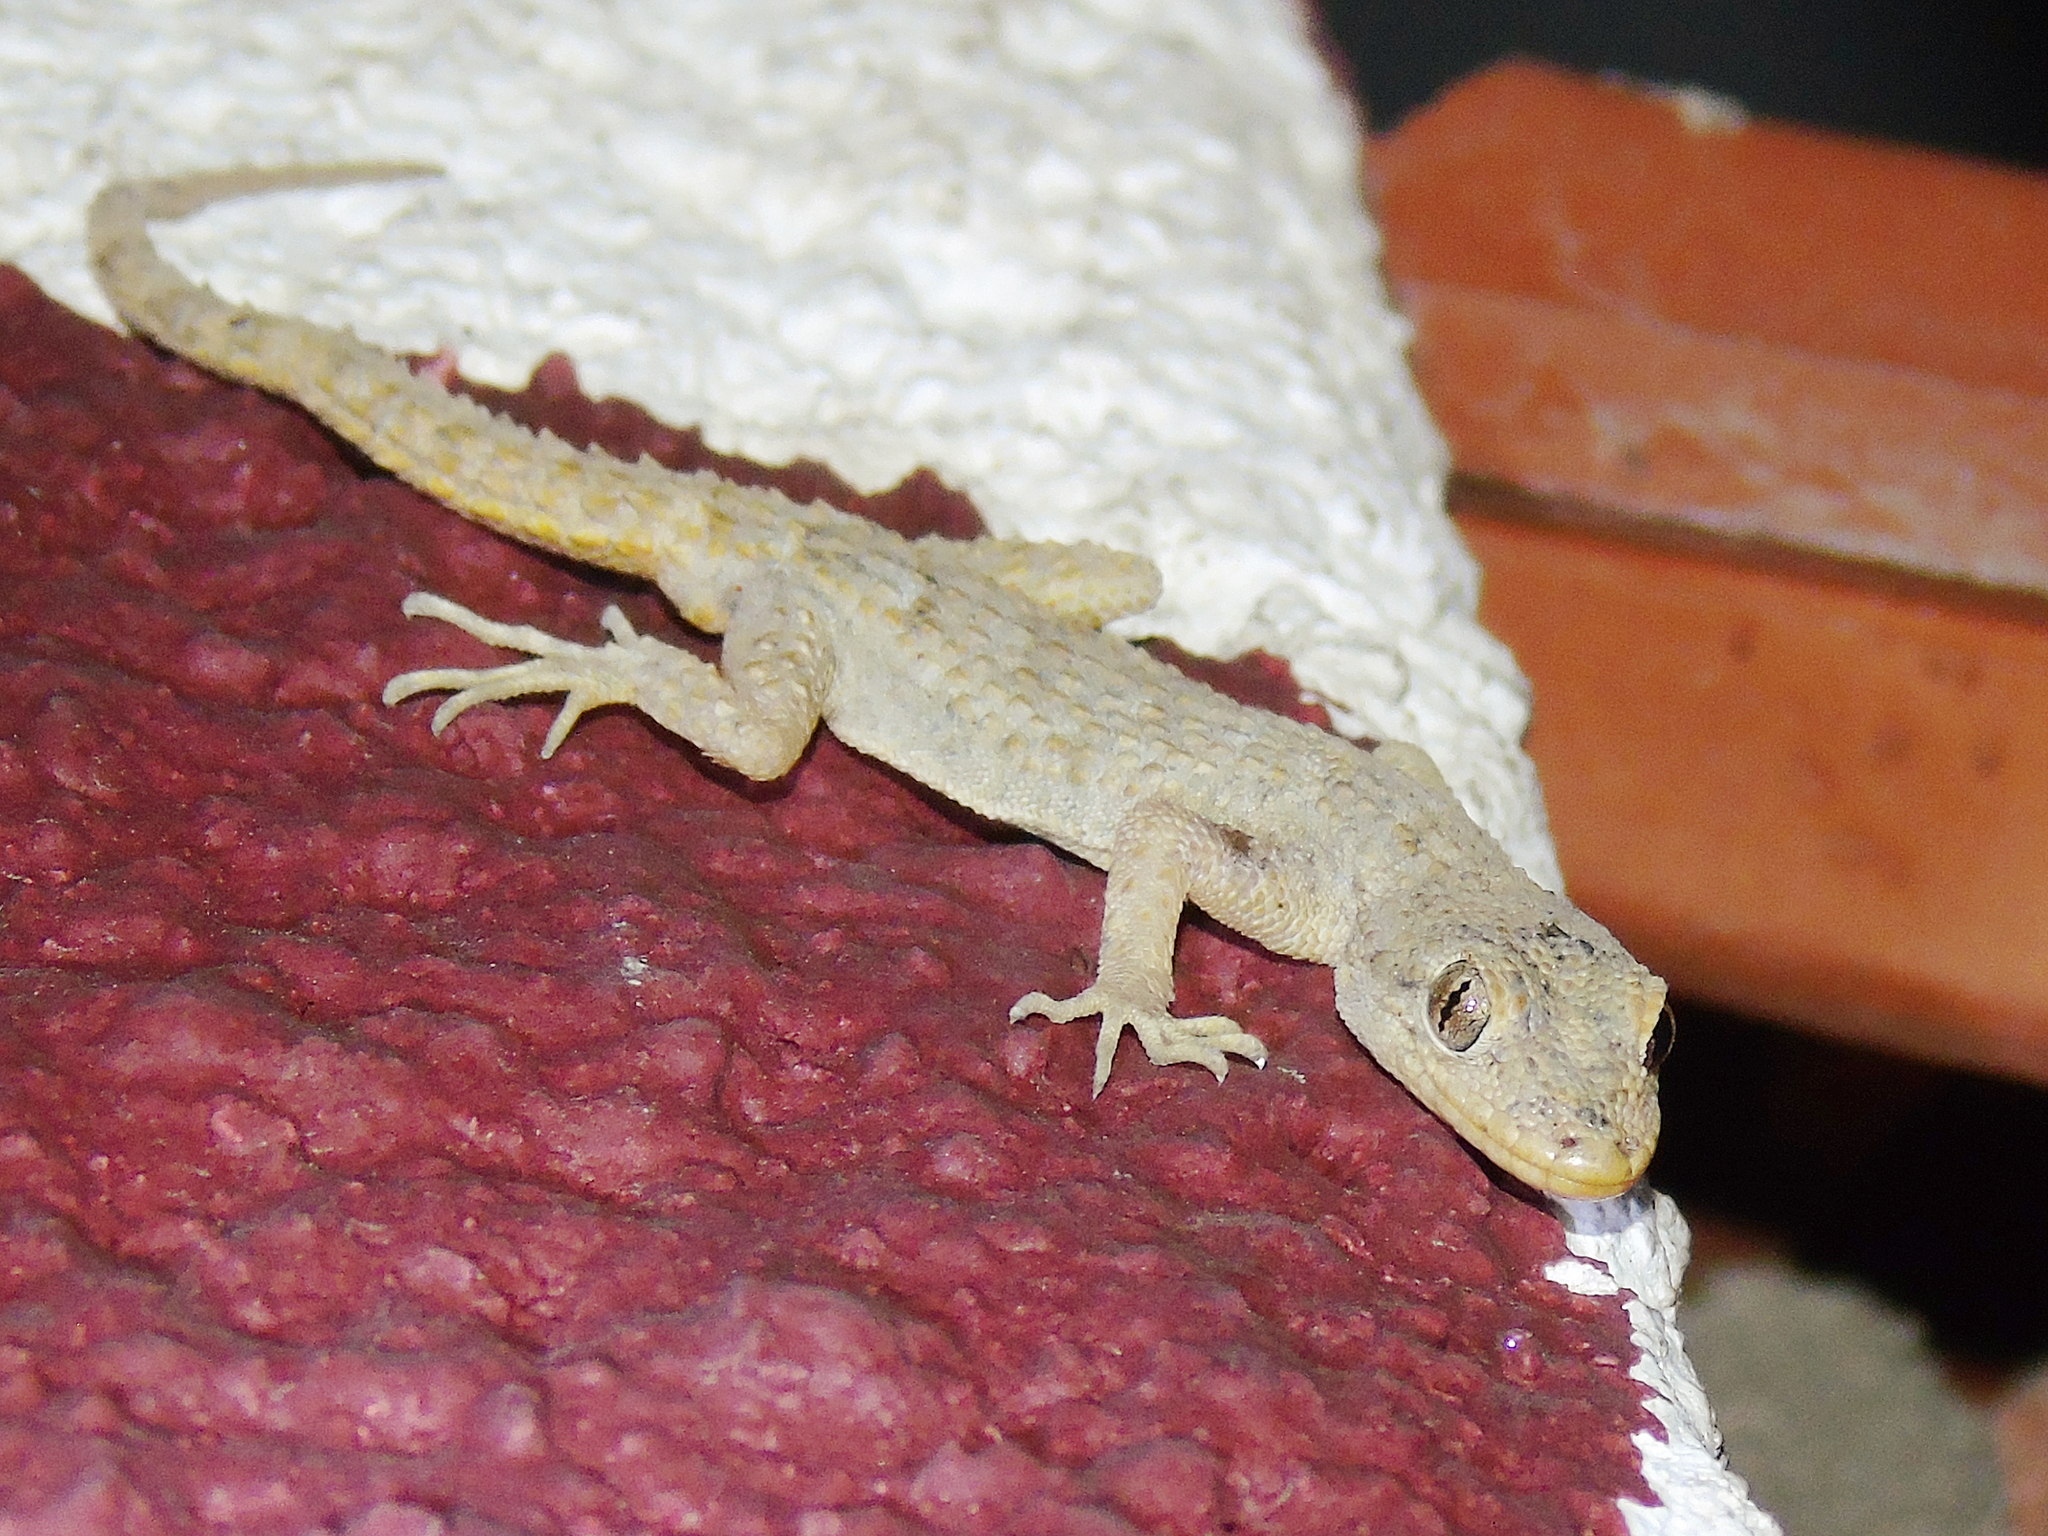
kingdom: Animalia
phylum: Chordata
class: Squamata
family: Gekkonidae
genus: Mediodactylus
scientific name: Mediodactylus kotschyi
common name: Kotschy's gecko
